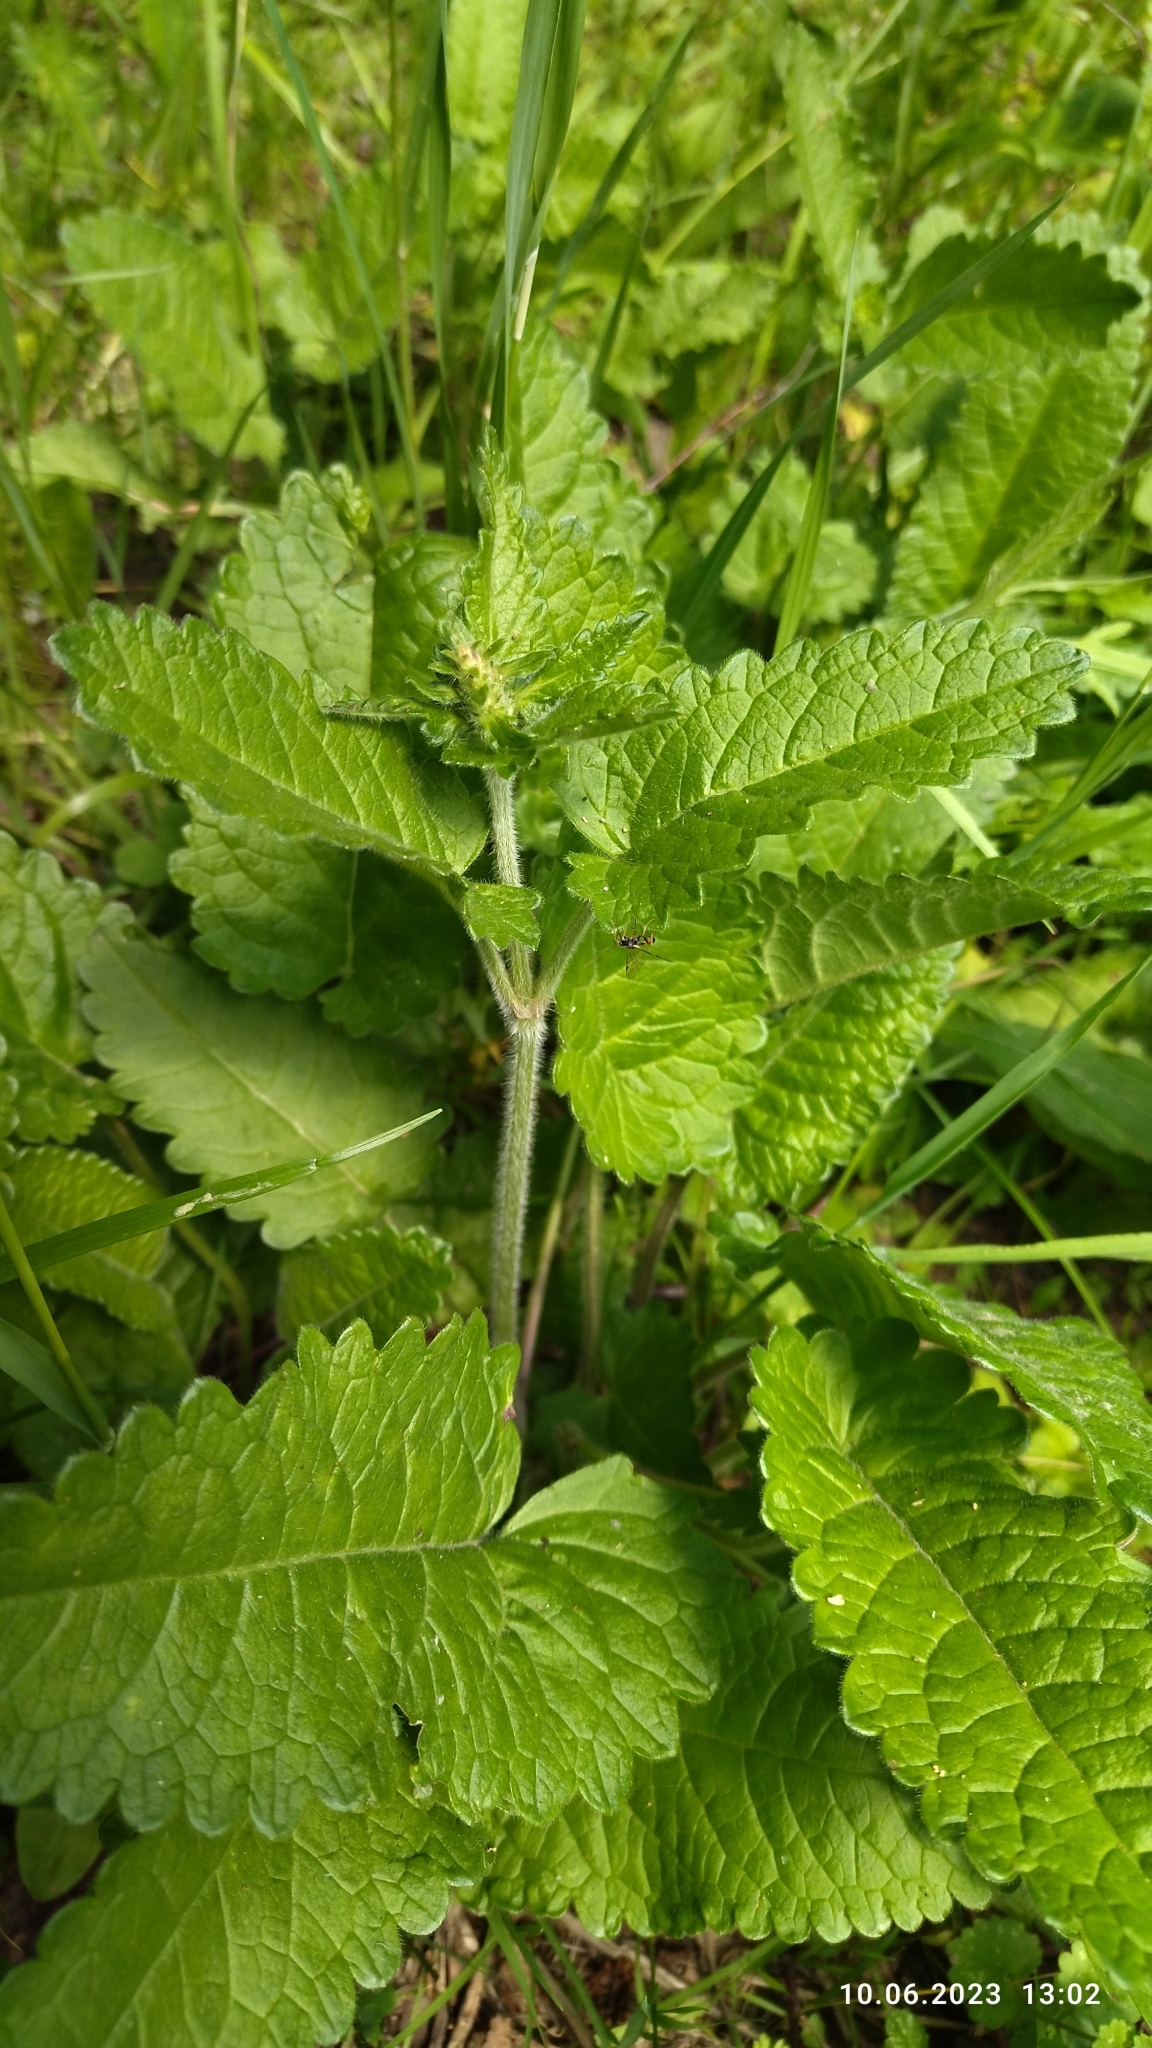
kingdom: Plantae
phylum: Tracheophyta
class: Magnoliopsida
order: Lamiales
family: Lamiaceae
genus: Betonica
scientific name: Betonica officinalis
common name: Bishop's-wort
